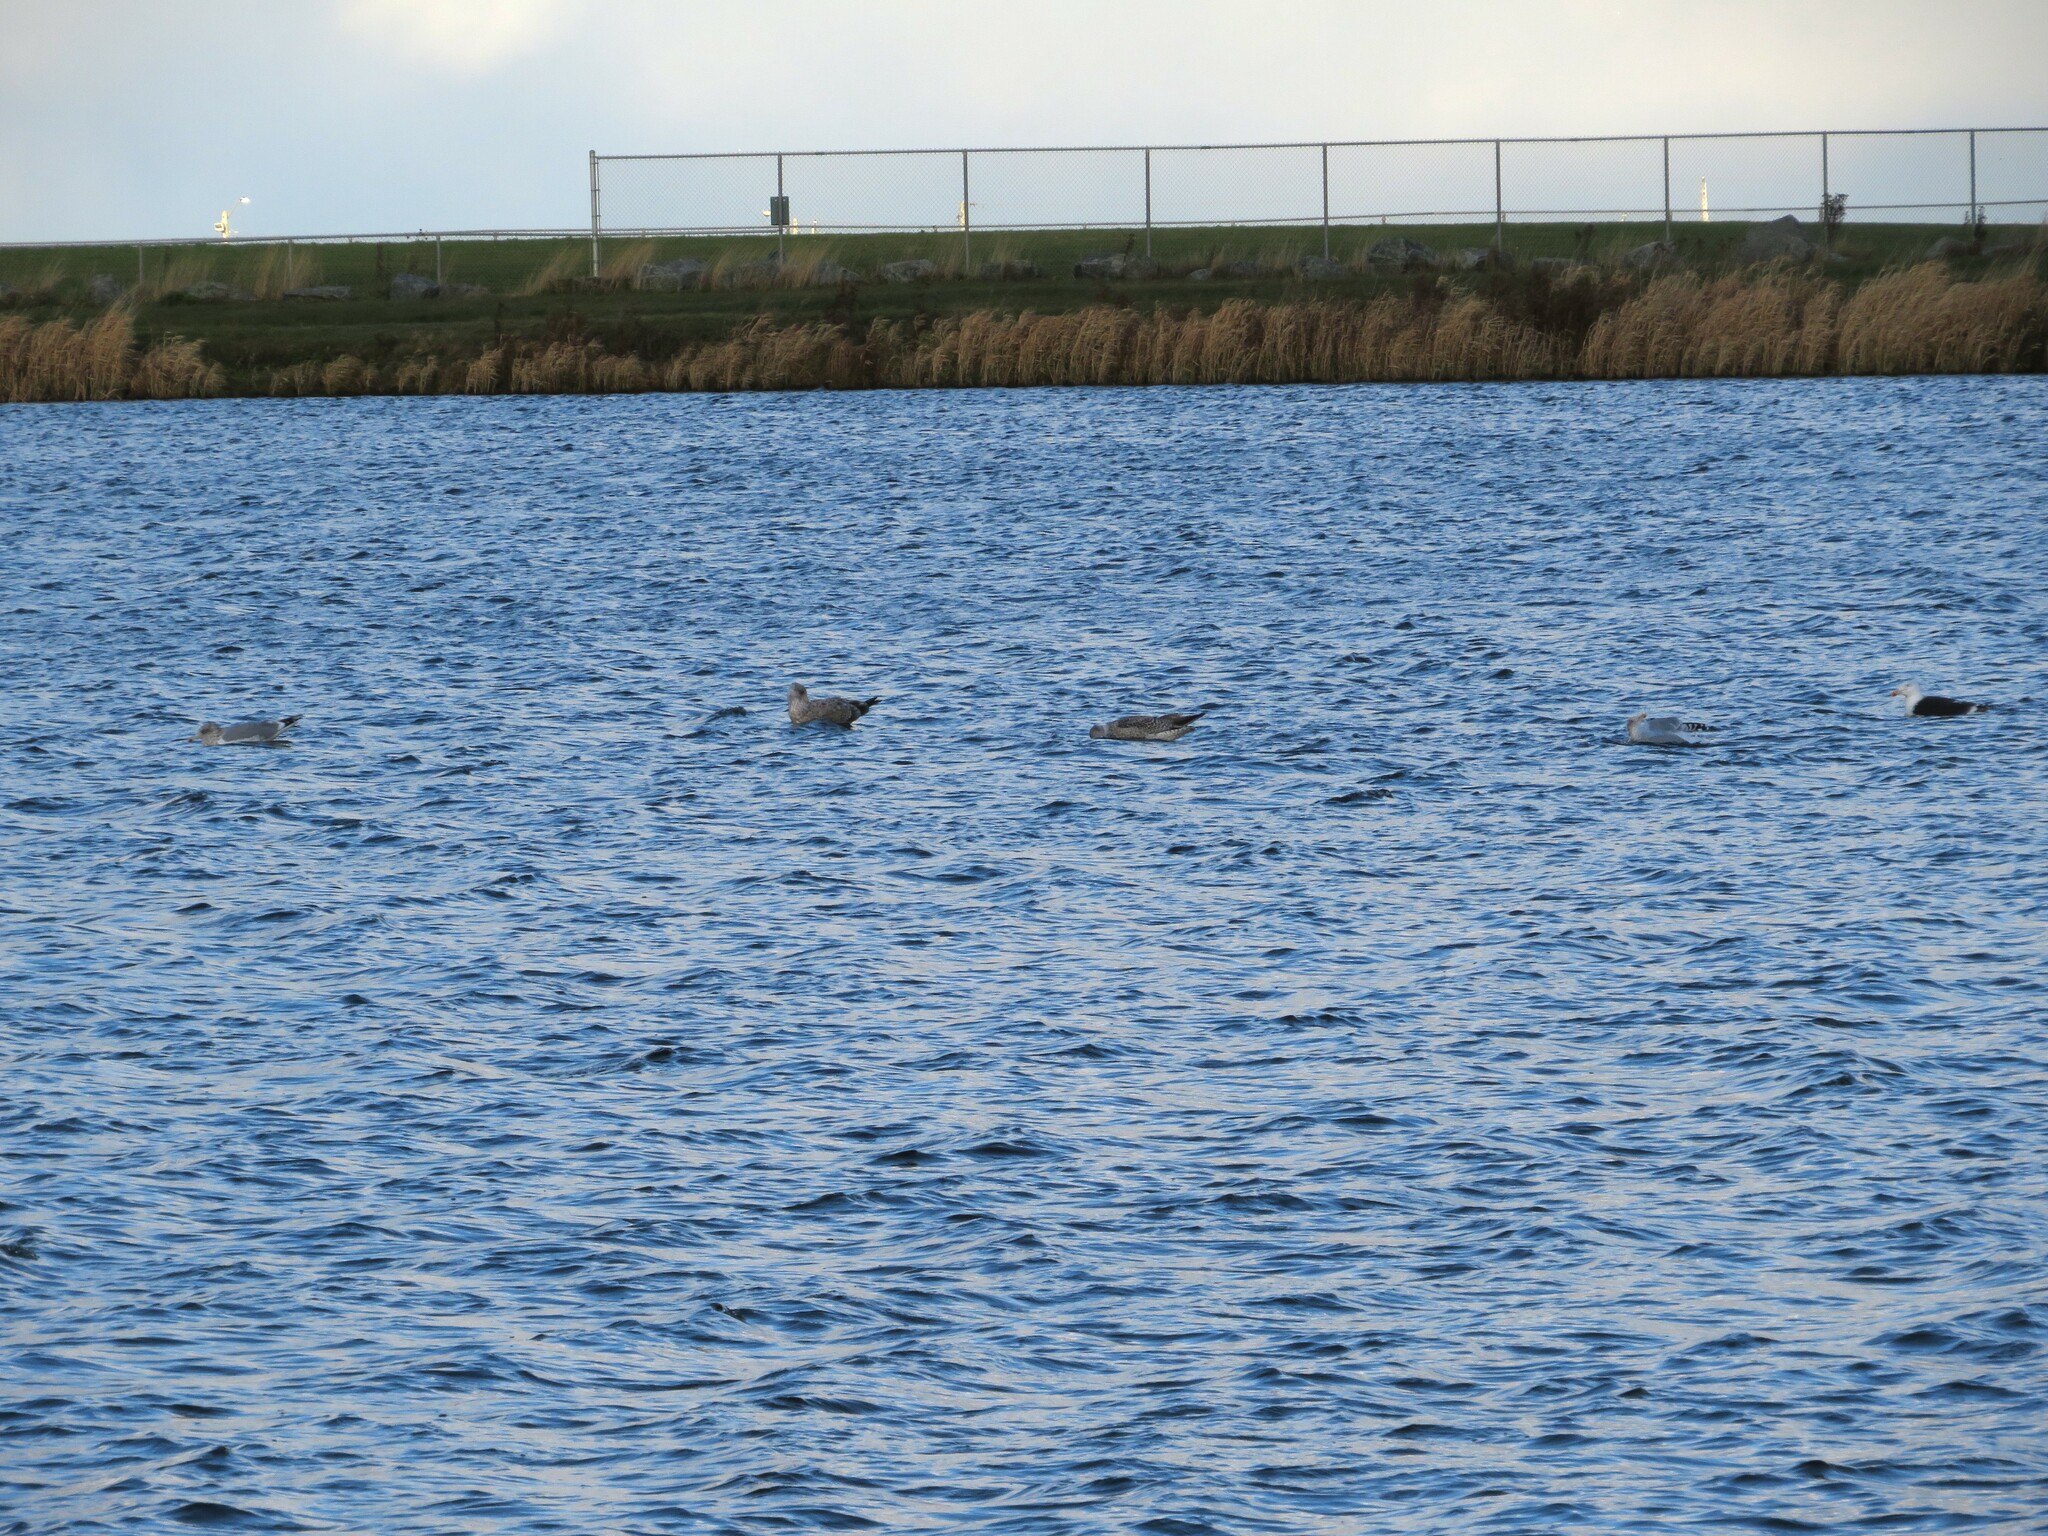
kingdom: Animalia
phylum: Chordata
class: Aves
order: Charadriiformes
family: Laridae
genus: Larus
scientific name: Larus argentatus
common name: Herring gull
